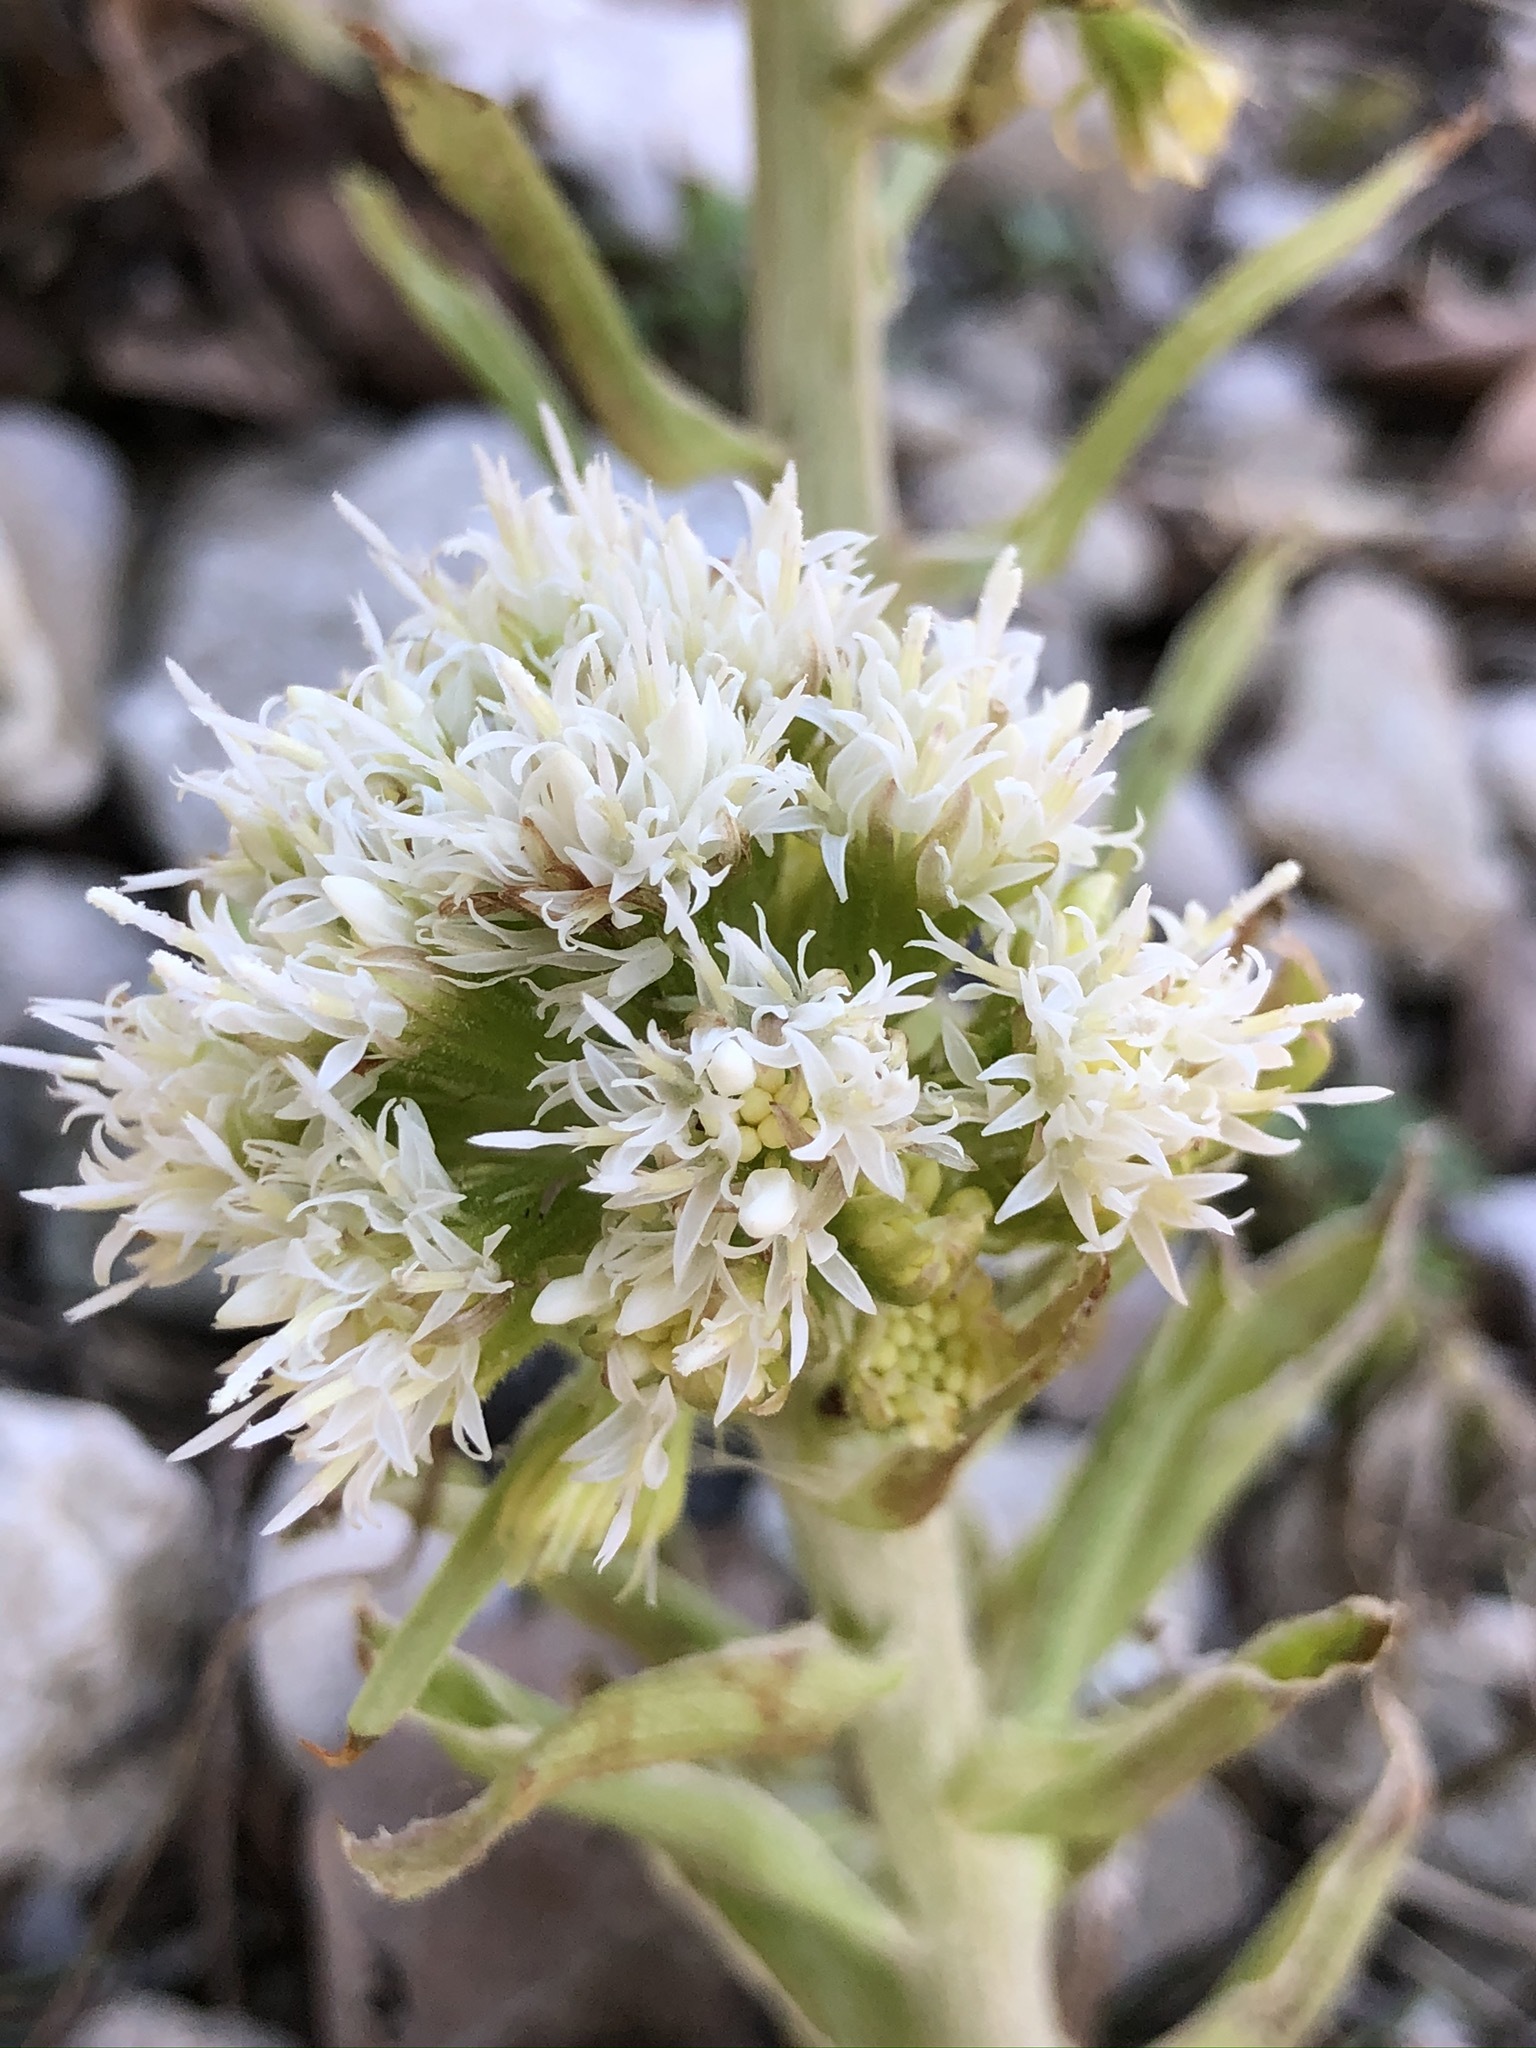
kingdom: Plantae
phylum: Tracheophyta
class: Magnoliopsida
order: Asterales
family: Asteraceae
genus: Petasites
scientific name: Petasites albus
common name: White butterbur
